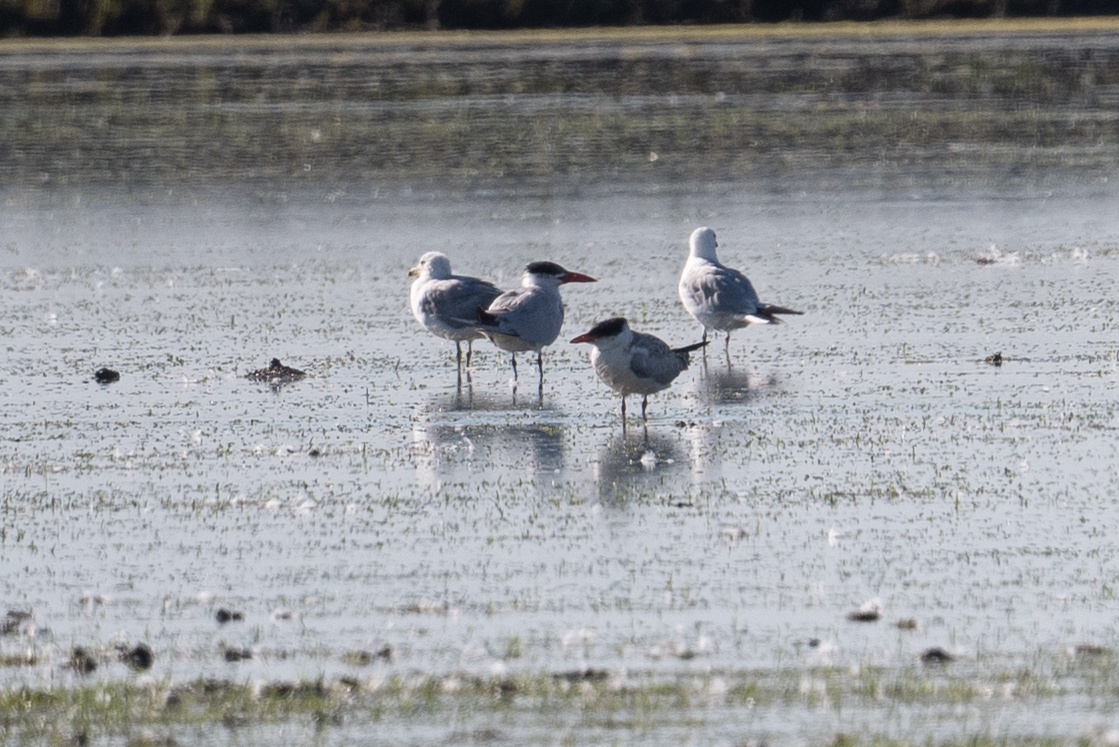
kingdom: Animalia
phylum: Chordata
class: Aves
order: Charadriiformes
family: Laridae
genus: Hydroprogne
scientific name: Hydroprogne caspia
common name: Caspian tern
